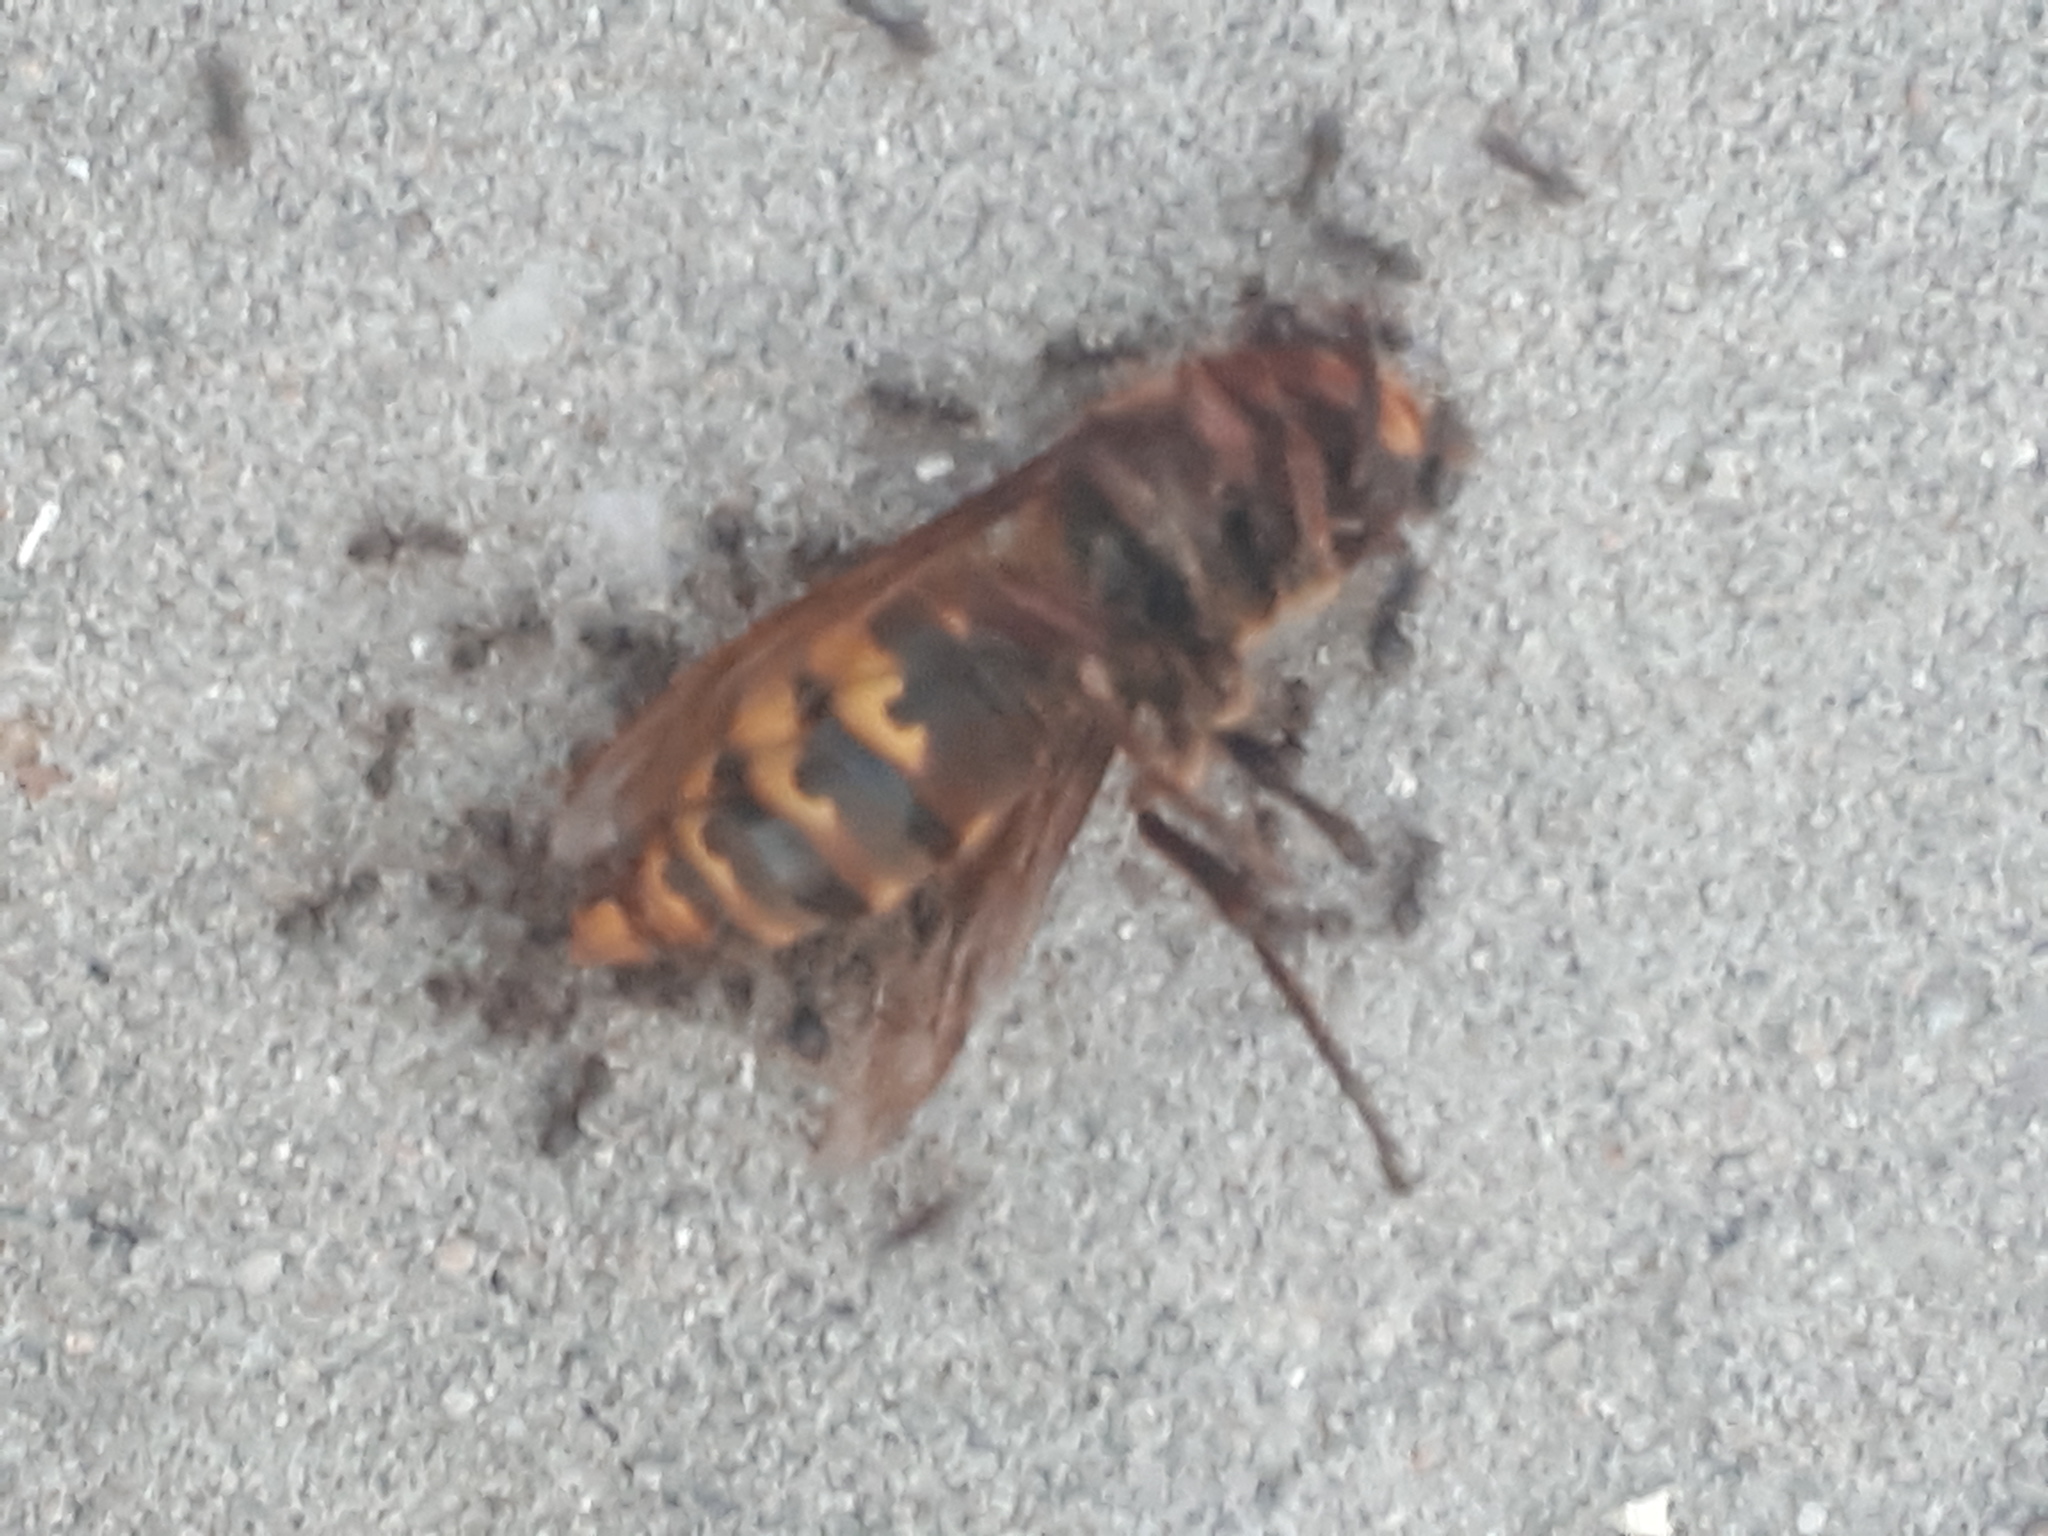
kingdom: Animalia
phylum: Arthropoda
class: Insecta
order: Hymenoptera
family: Vespidae
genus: Vespa
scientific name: Vespa crabro
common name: Hornet
